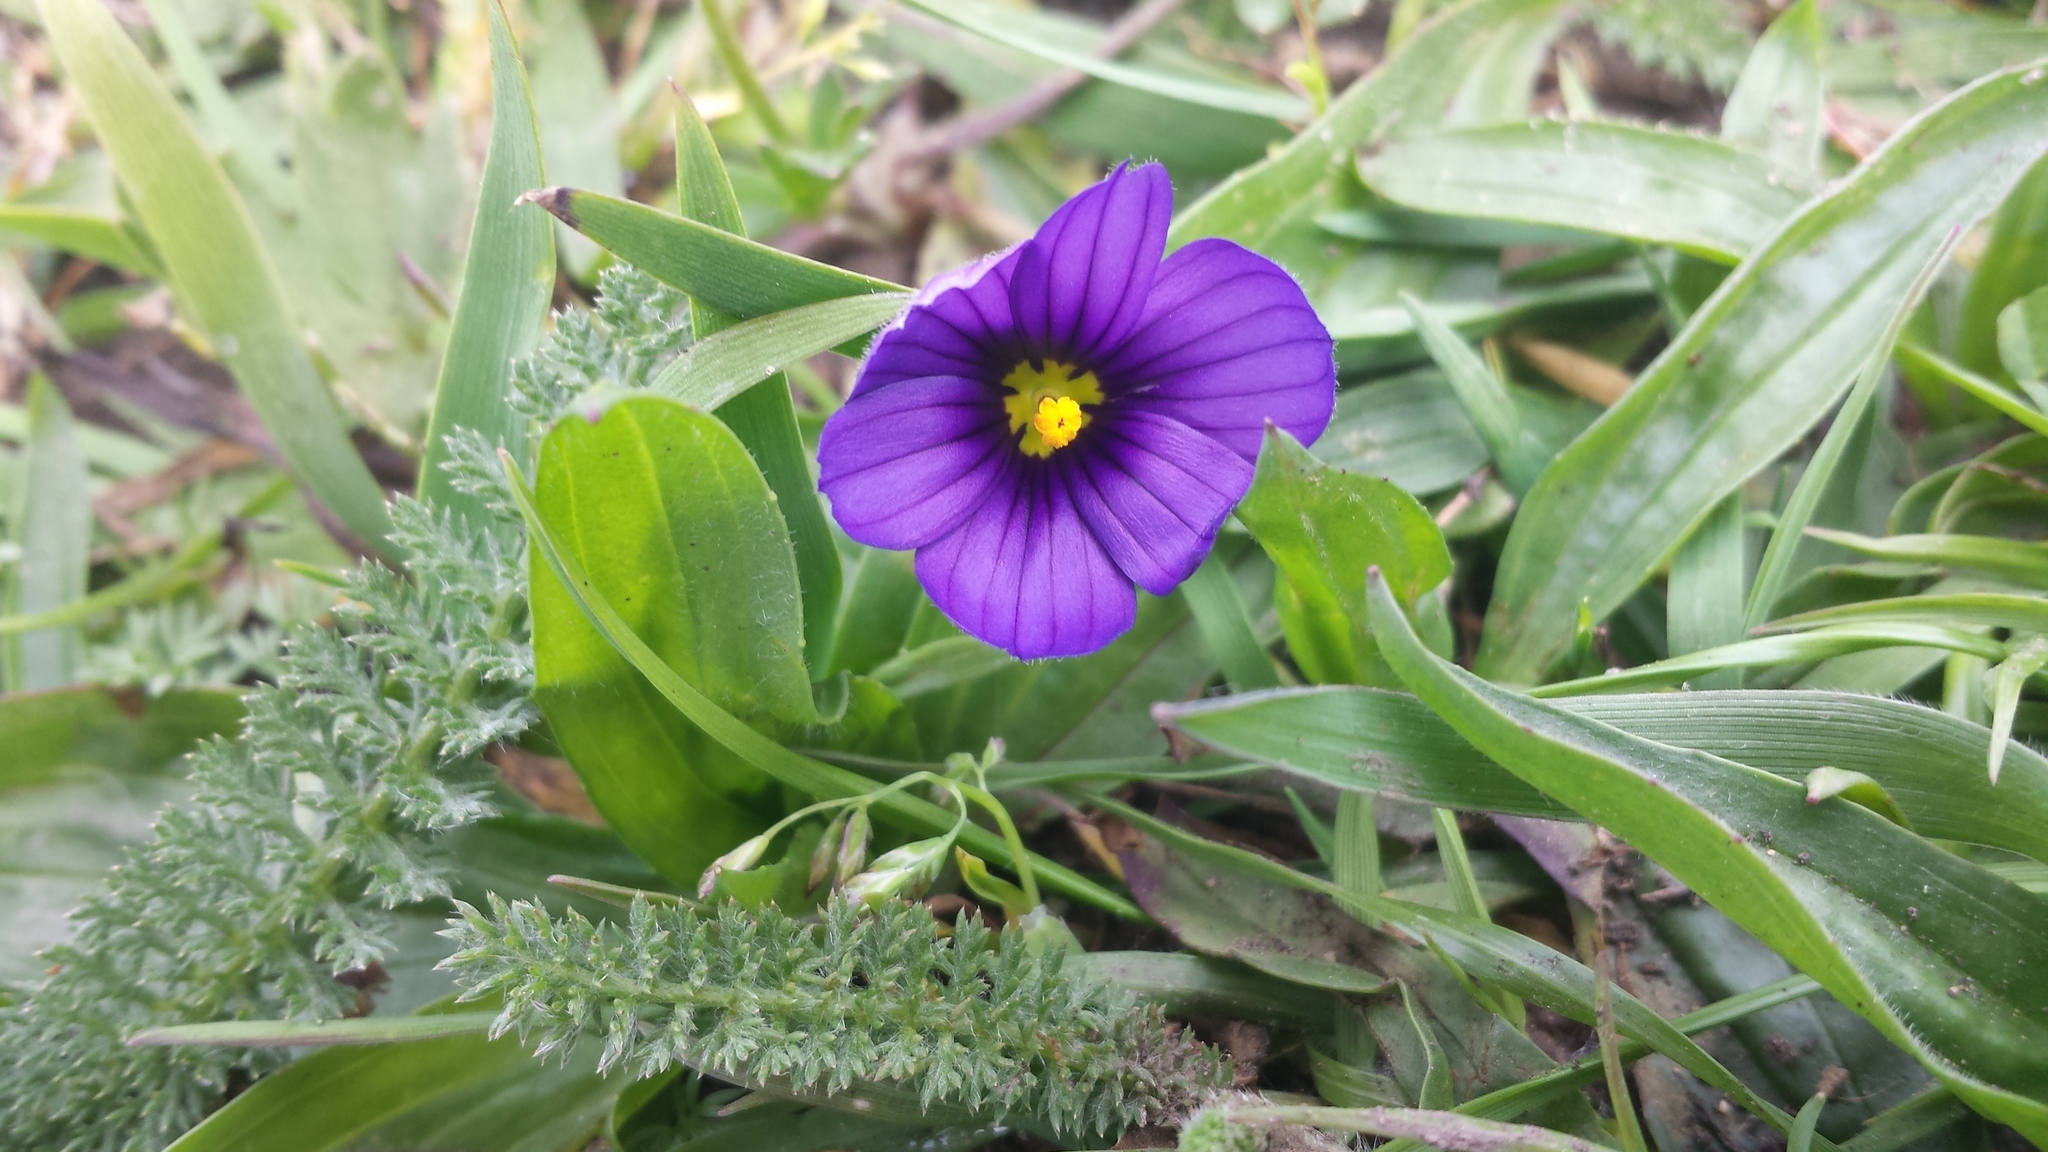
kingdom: Plantae
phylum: Tracheophyta
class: Liliopsida
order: Asparagales
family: Iridaceae
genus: Sisyrinchium
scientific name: Sisyrinchium bellum
